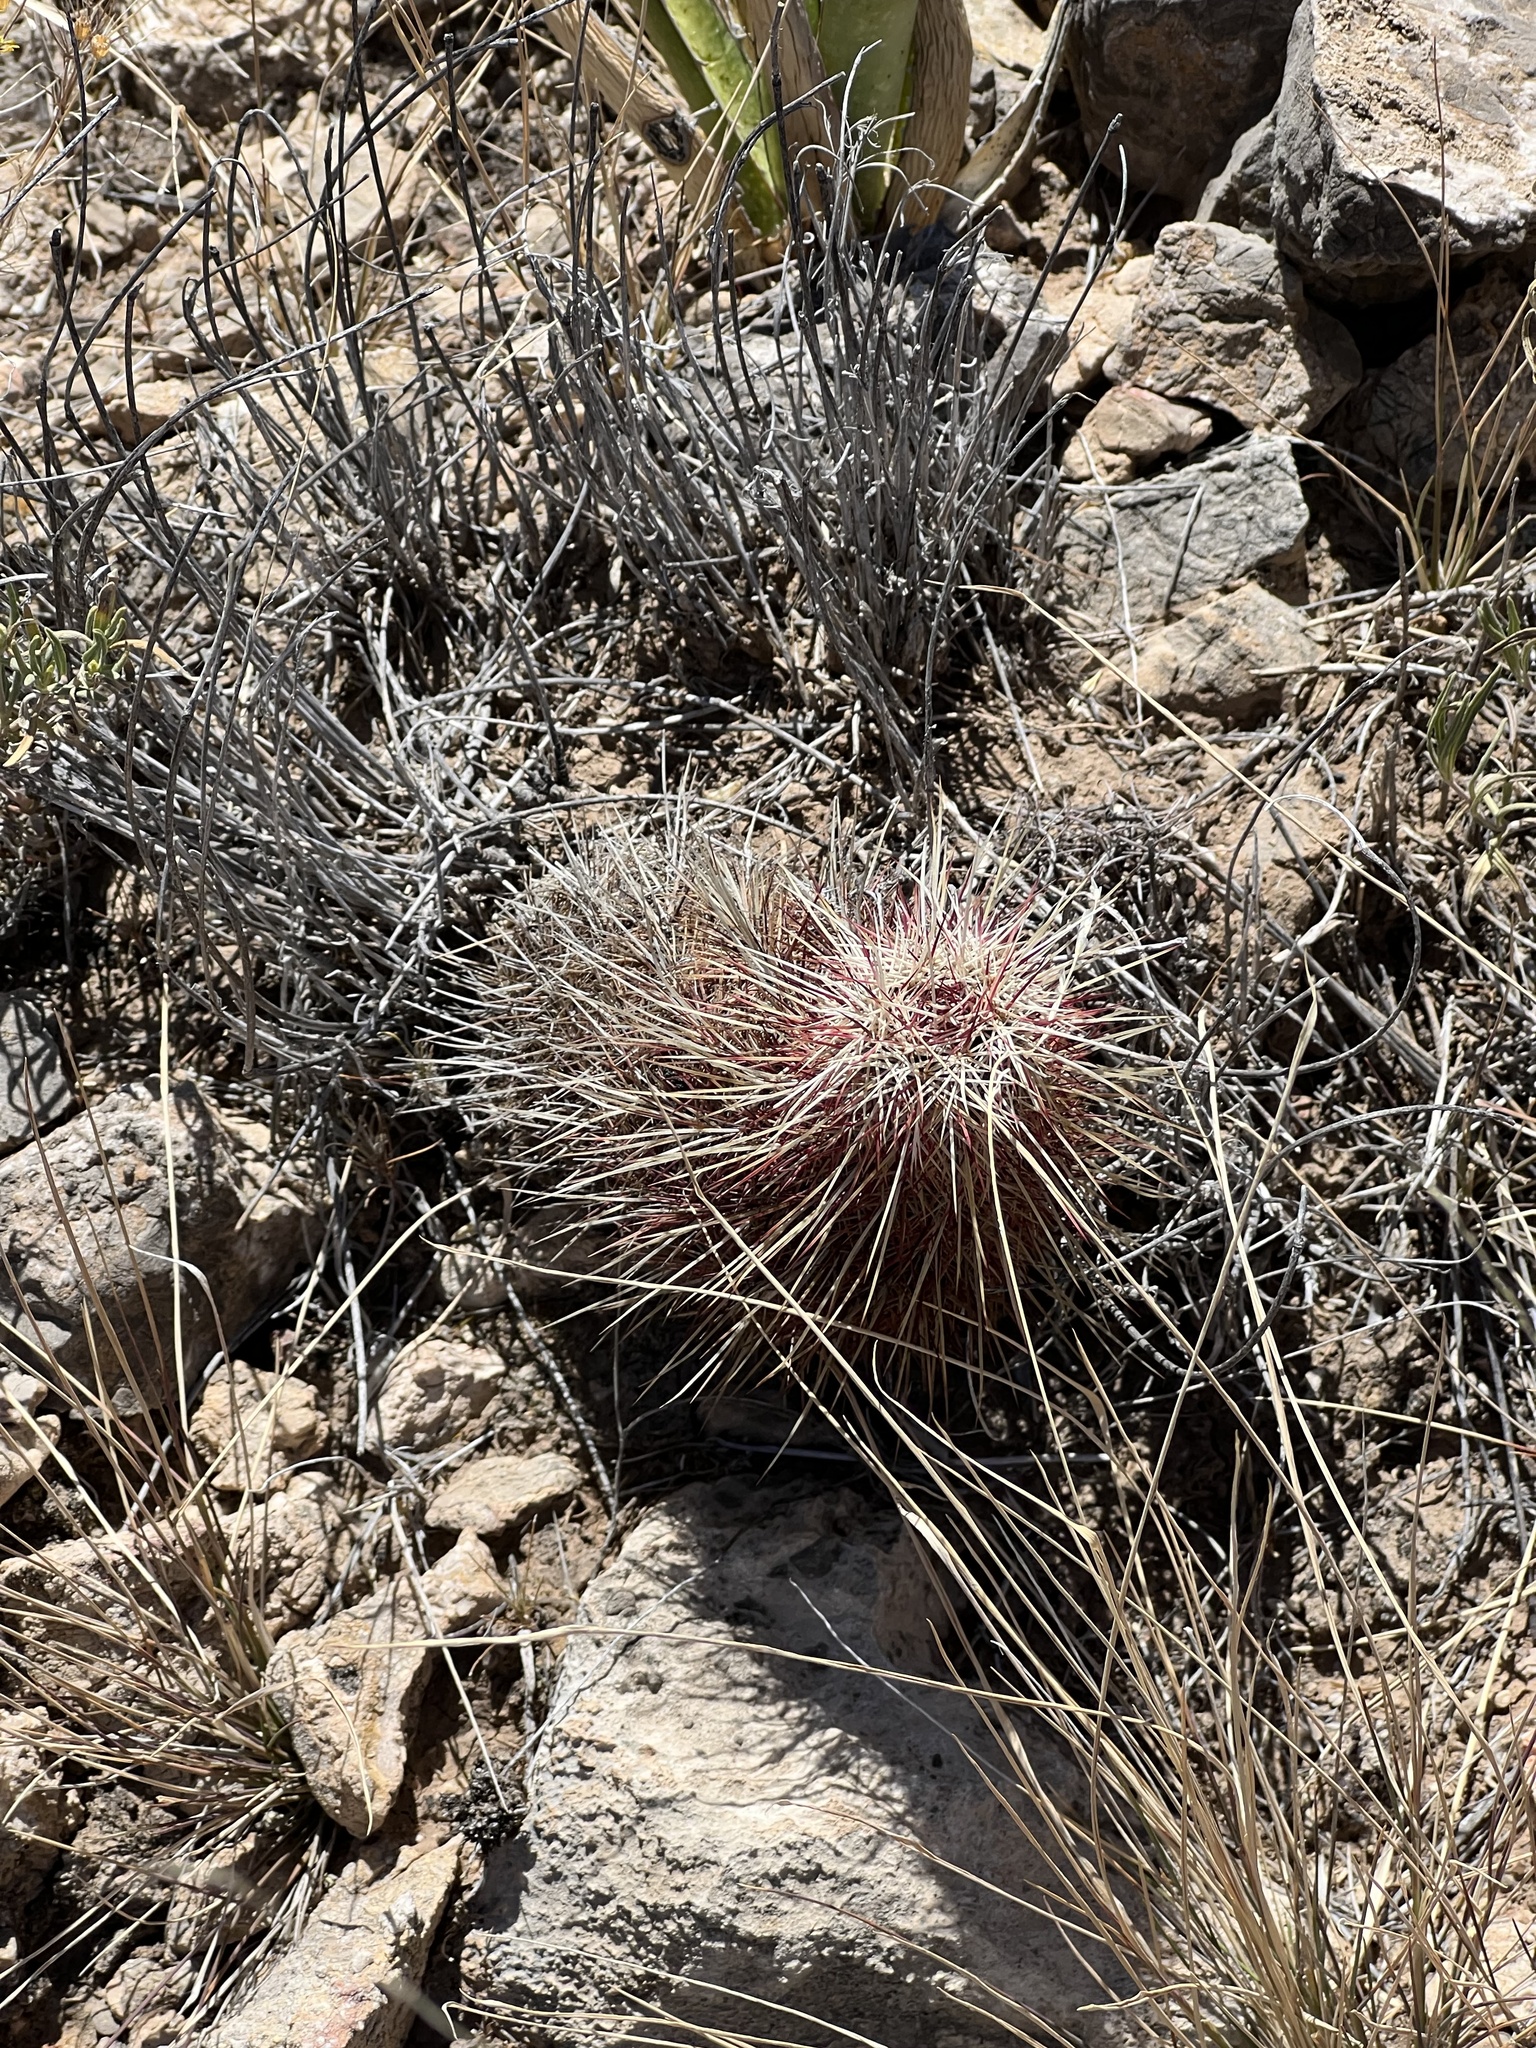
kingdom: Plantae
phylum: Tracheophyta
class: Magnoliopsida
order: Caryophyllales
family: Cactaceae
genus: Echinocereus
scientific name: Echinocereus viridiflorus
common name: Nylon hedgehog cactus
